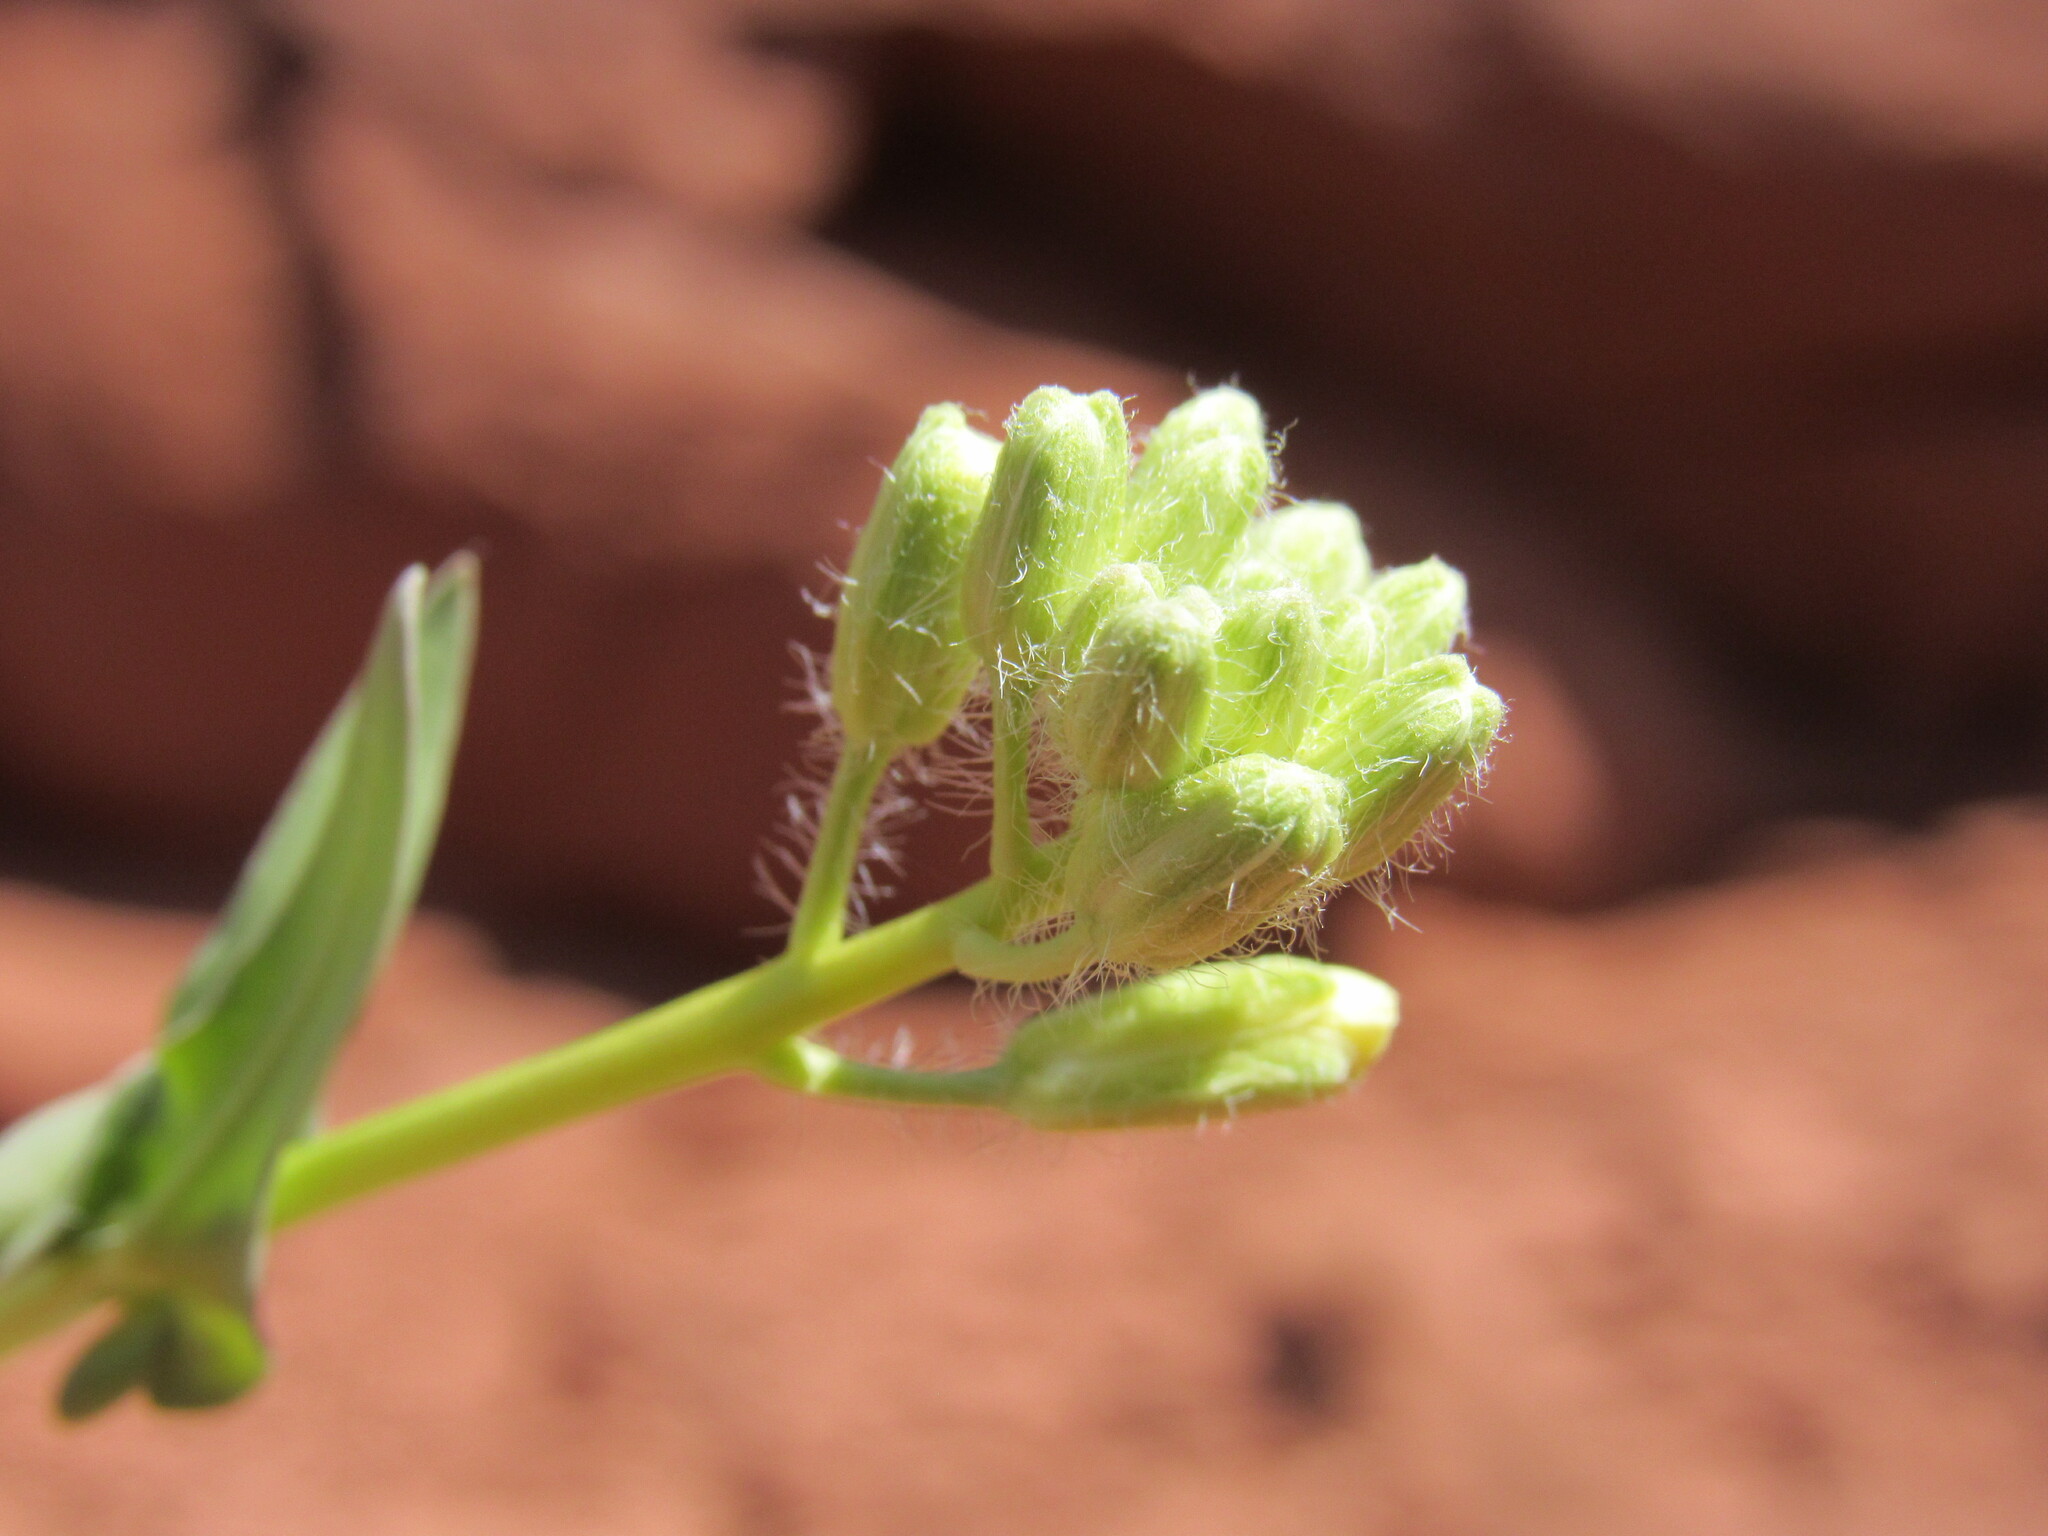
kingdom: Plantae
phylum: Tracheophyta
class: Magnoliopsida
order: Brassicales
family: Brassicaceae
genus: Streptanthus
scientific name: Streptanthus longirostris
